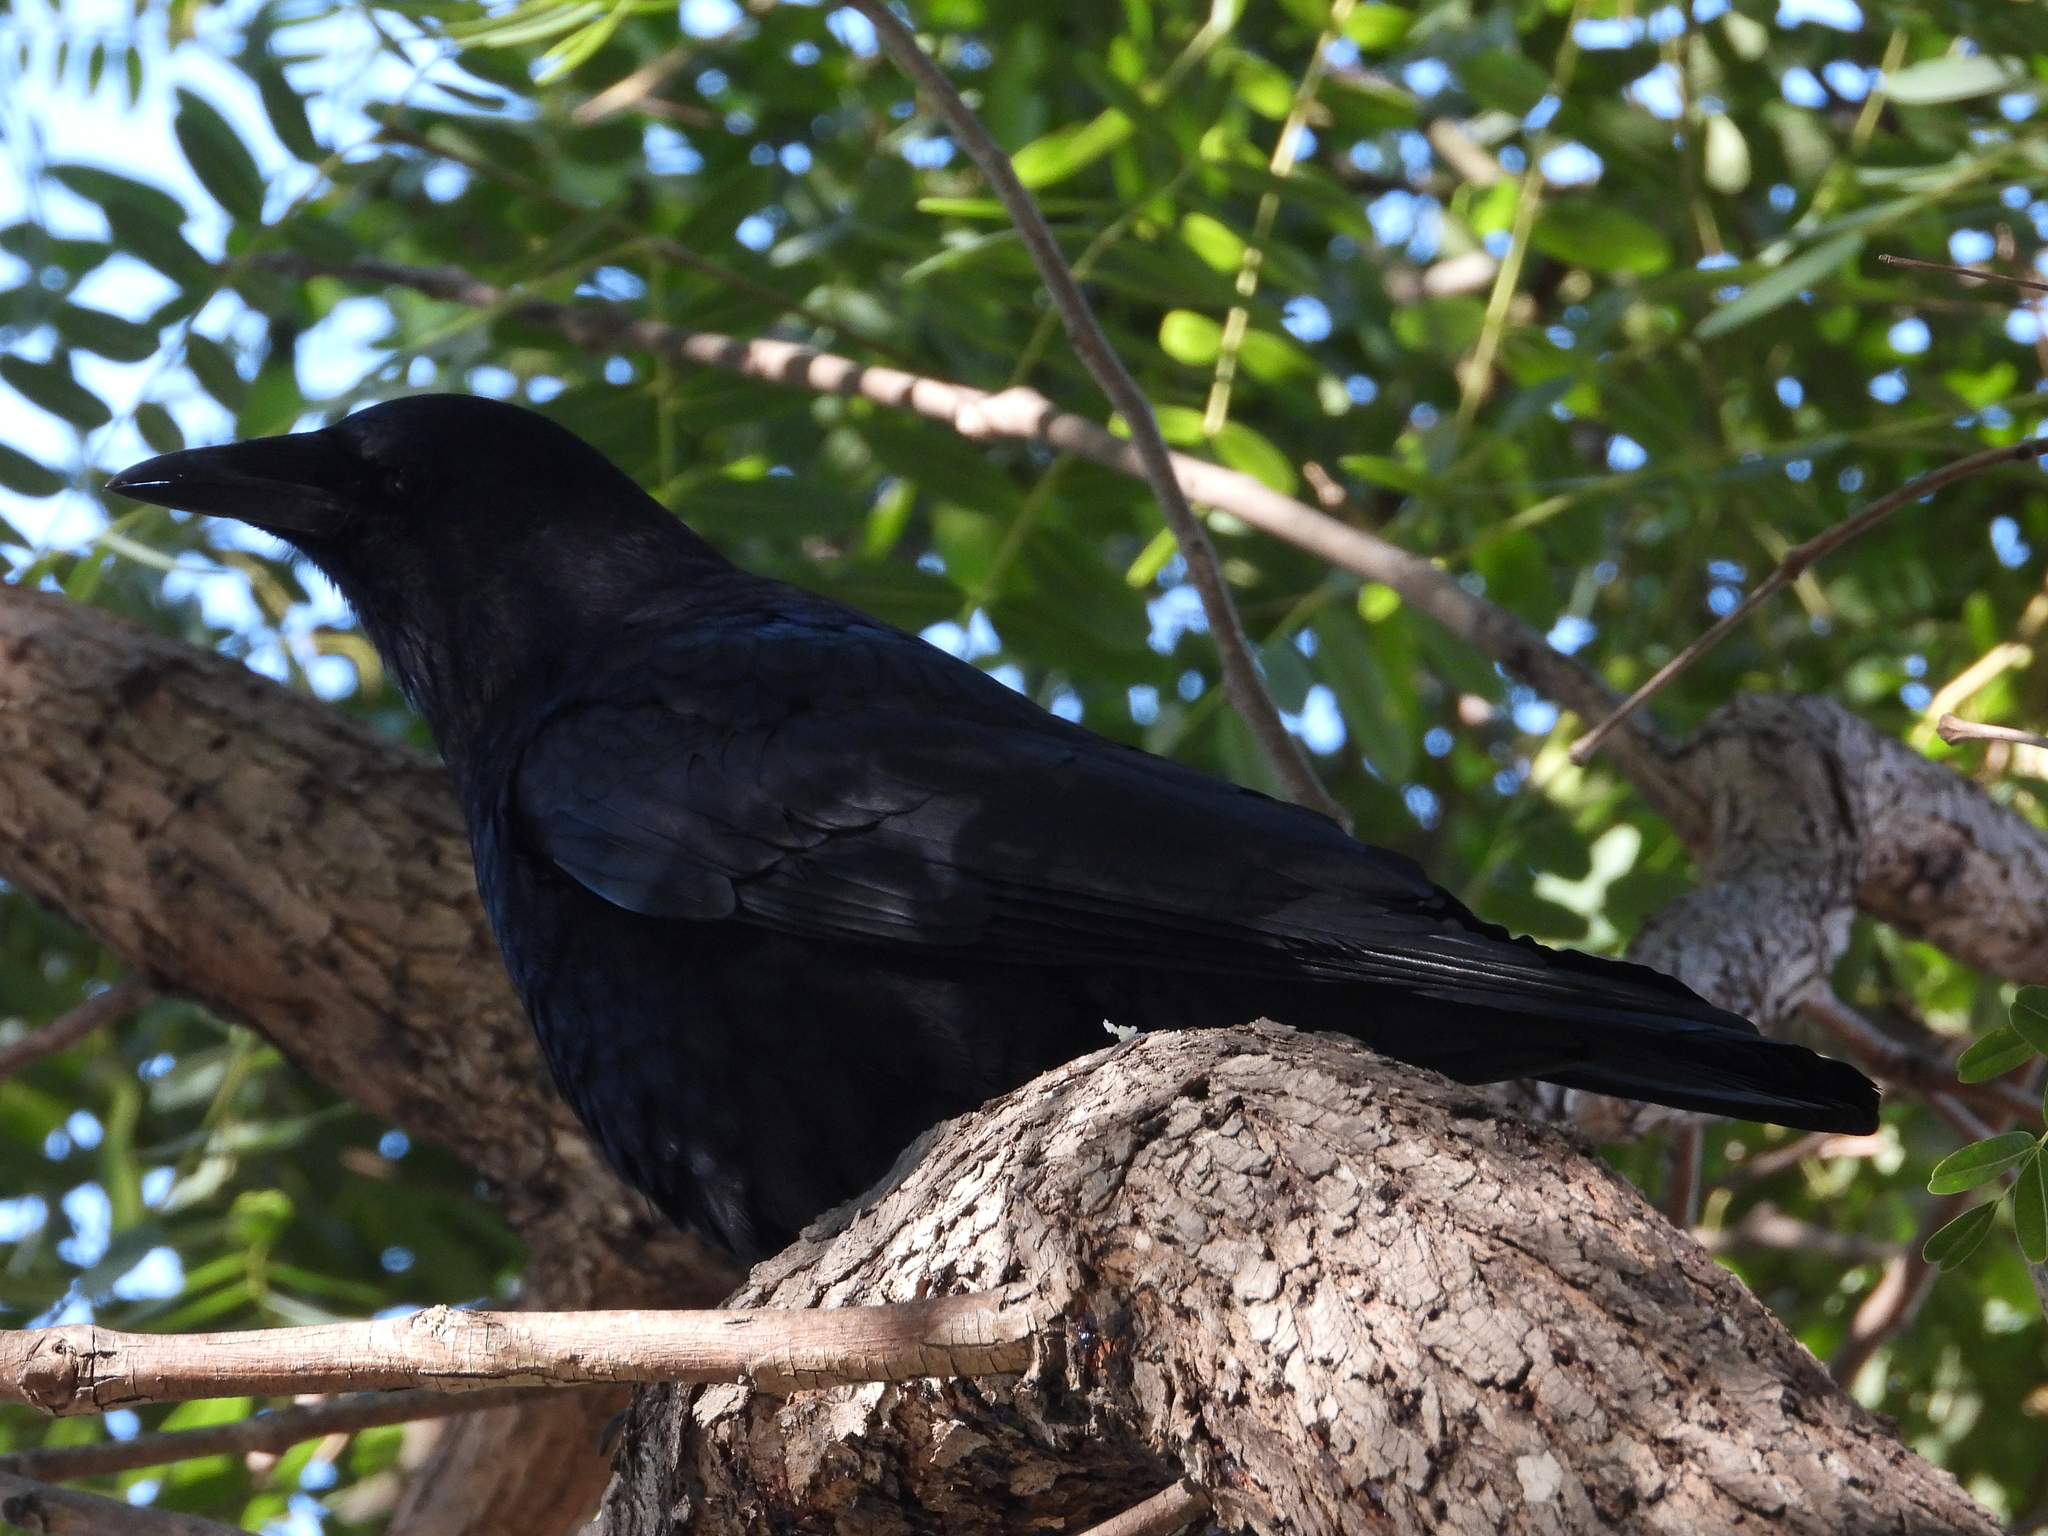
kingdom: Animalia
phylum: Chordata
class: Aves
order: Passeriformes
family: Corvidae
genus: Corvus
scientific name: Corvus brachyrhynchos
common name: American crow
